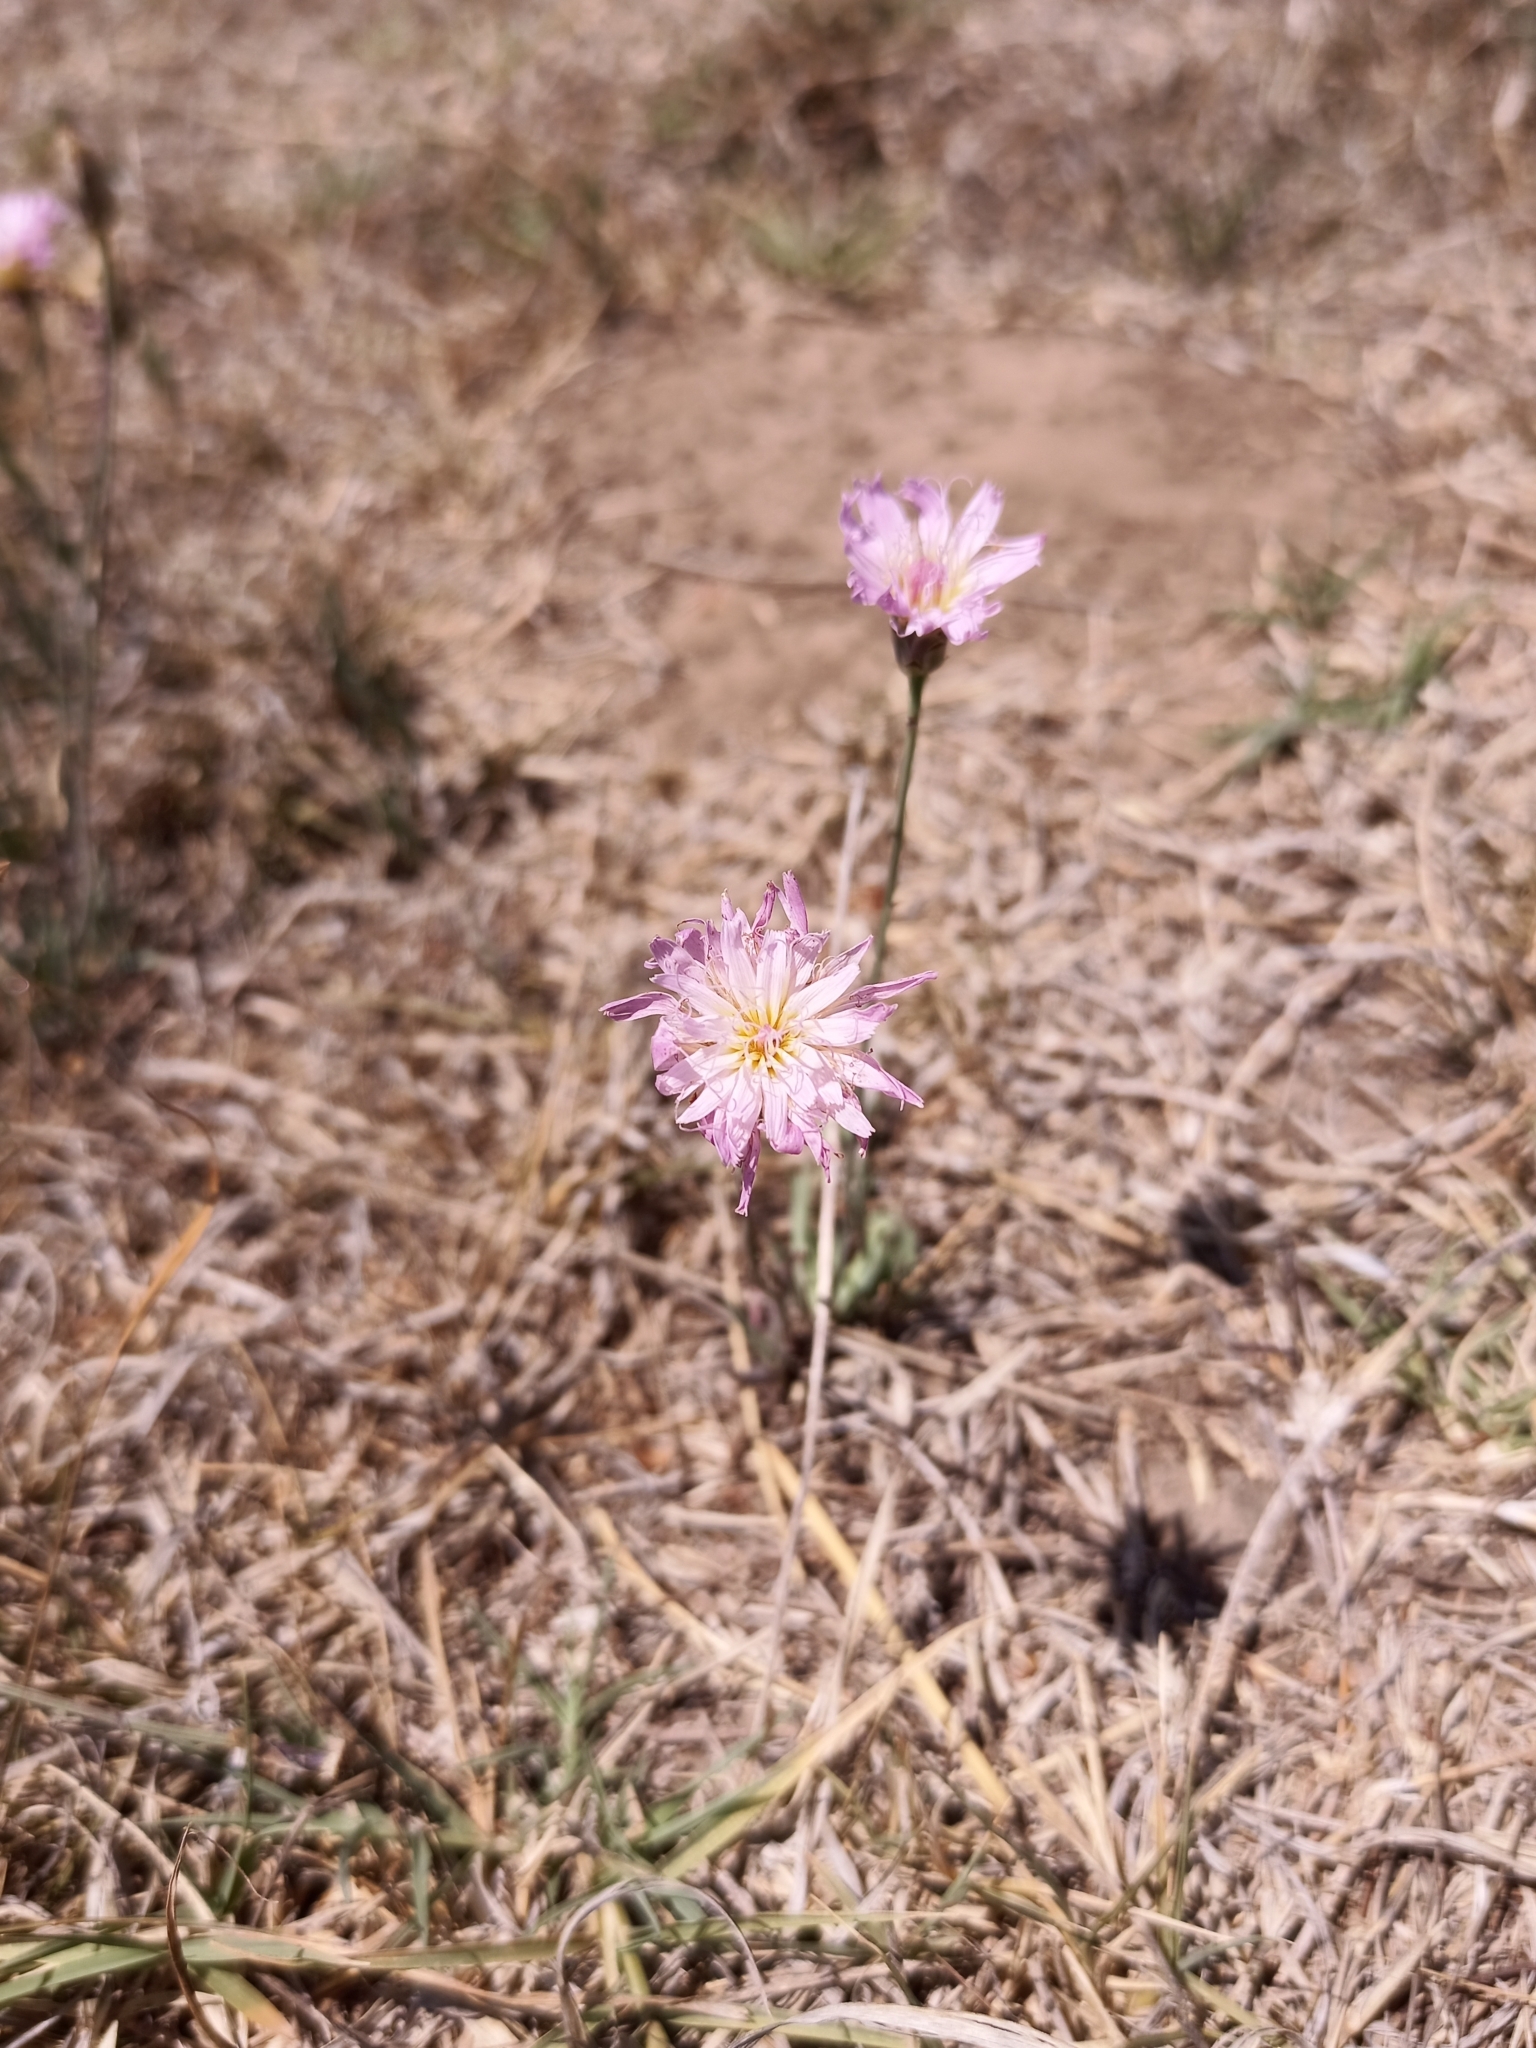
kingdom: Plantae
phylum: Tracheophyta
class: Magnoliopsida
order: Asterales
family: Asteraceae
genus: Pinaropappus
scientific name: Pinaropappus roseus
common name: Rock-lettuce
